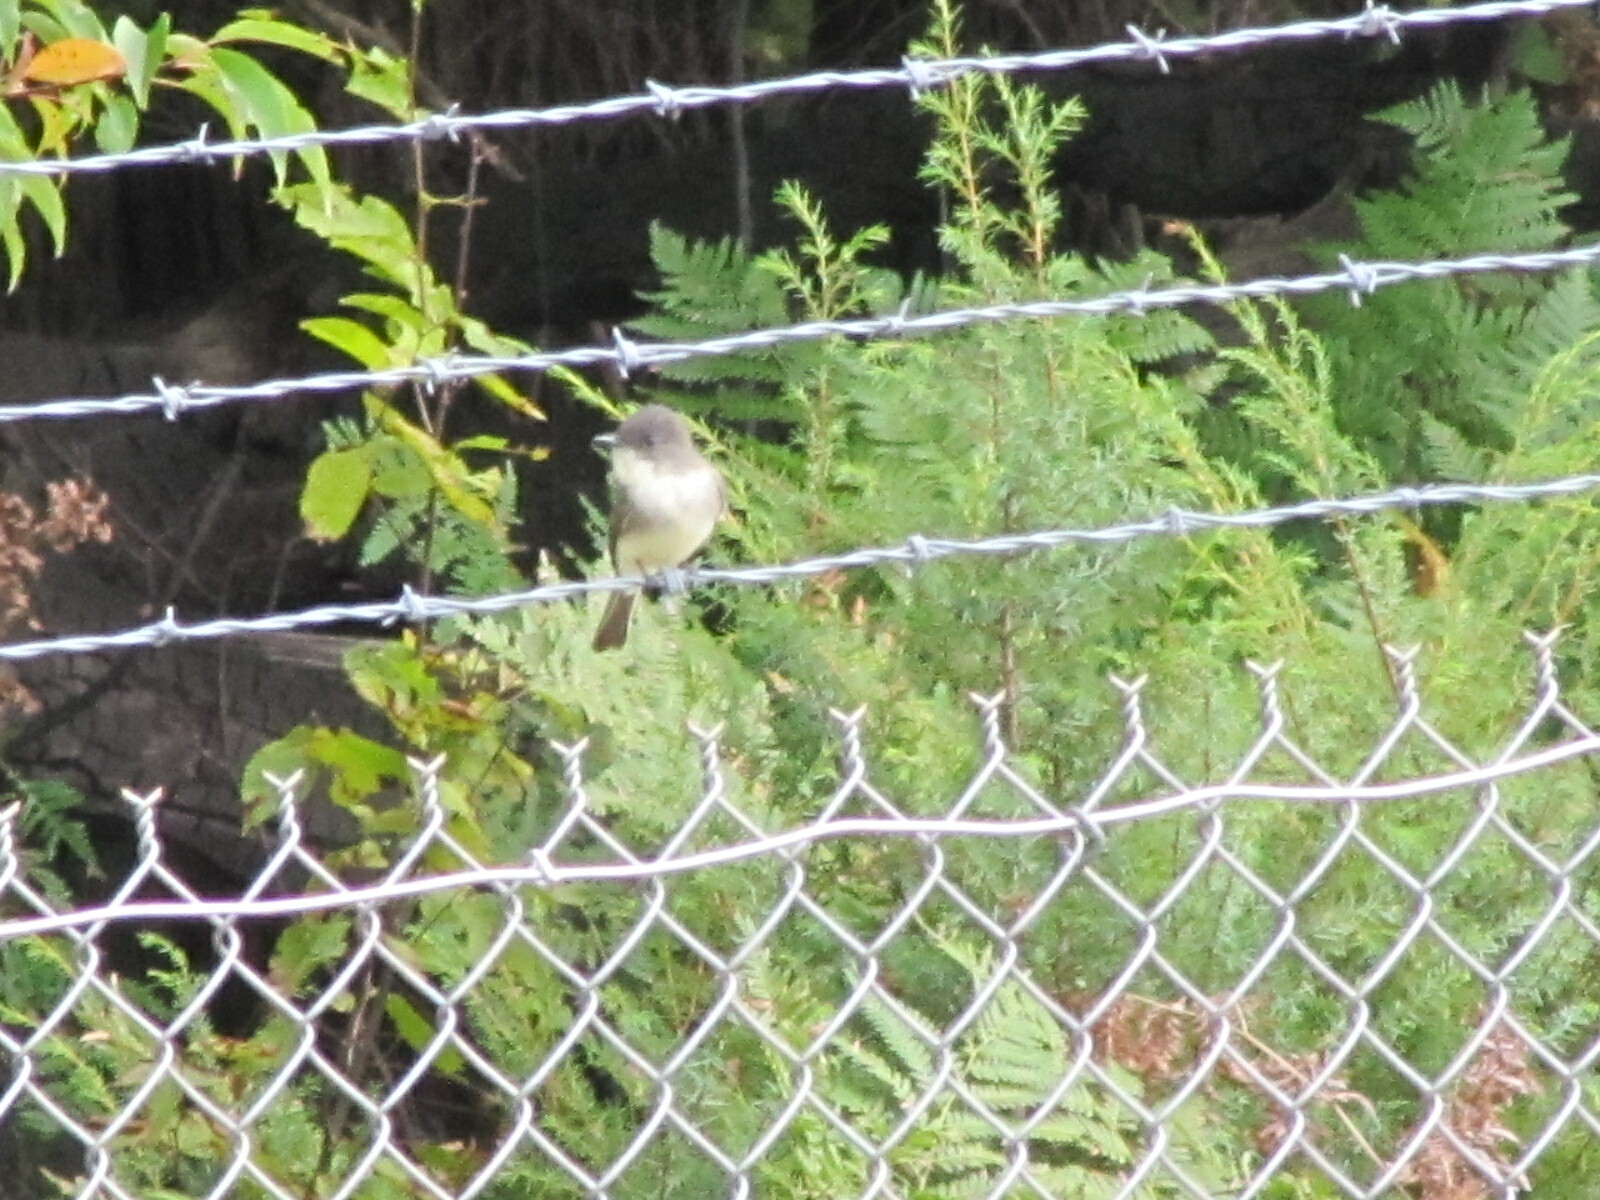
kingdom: Animalia
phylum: Chordata
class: Aves
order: Passeriformes
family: Tyrannidae
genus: Sayornis
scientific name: Sayornis phoebe
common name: Eastern phoebe
